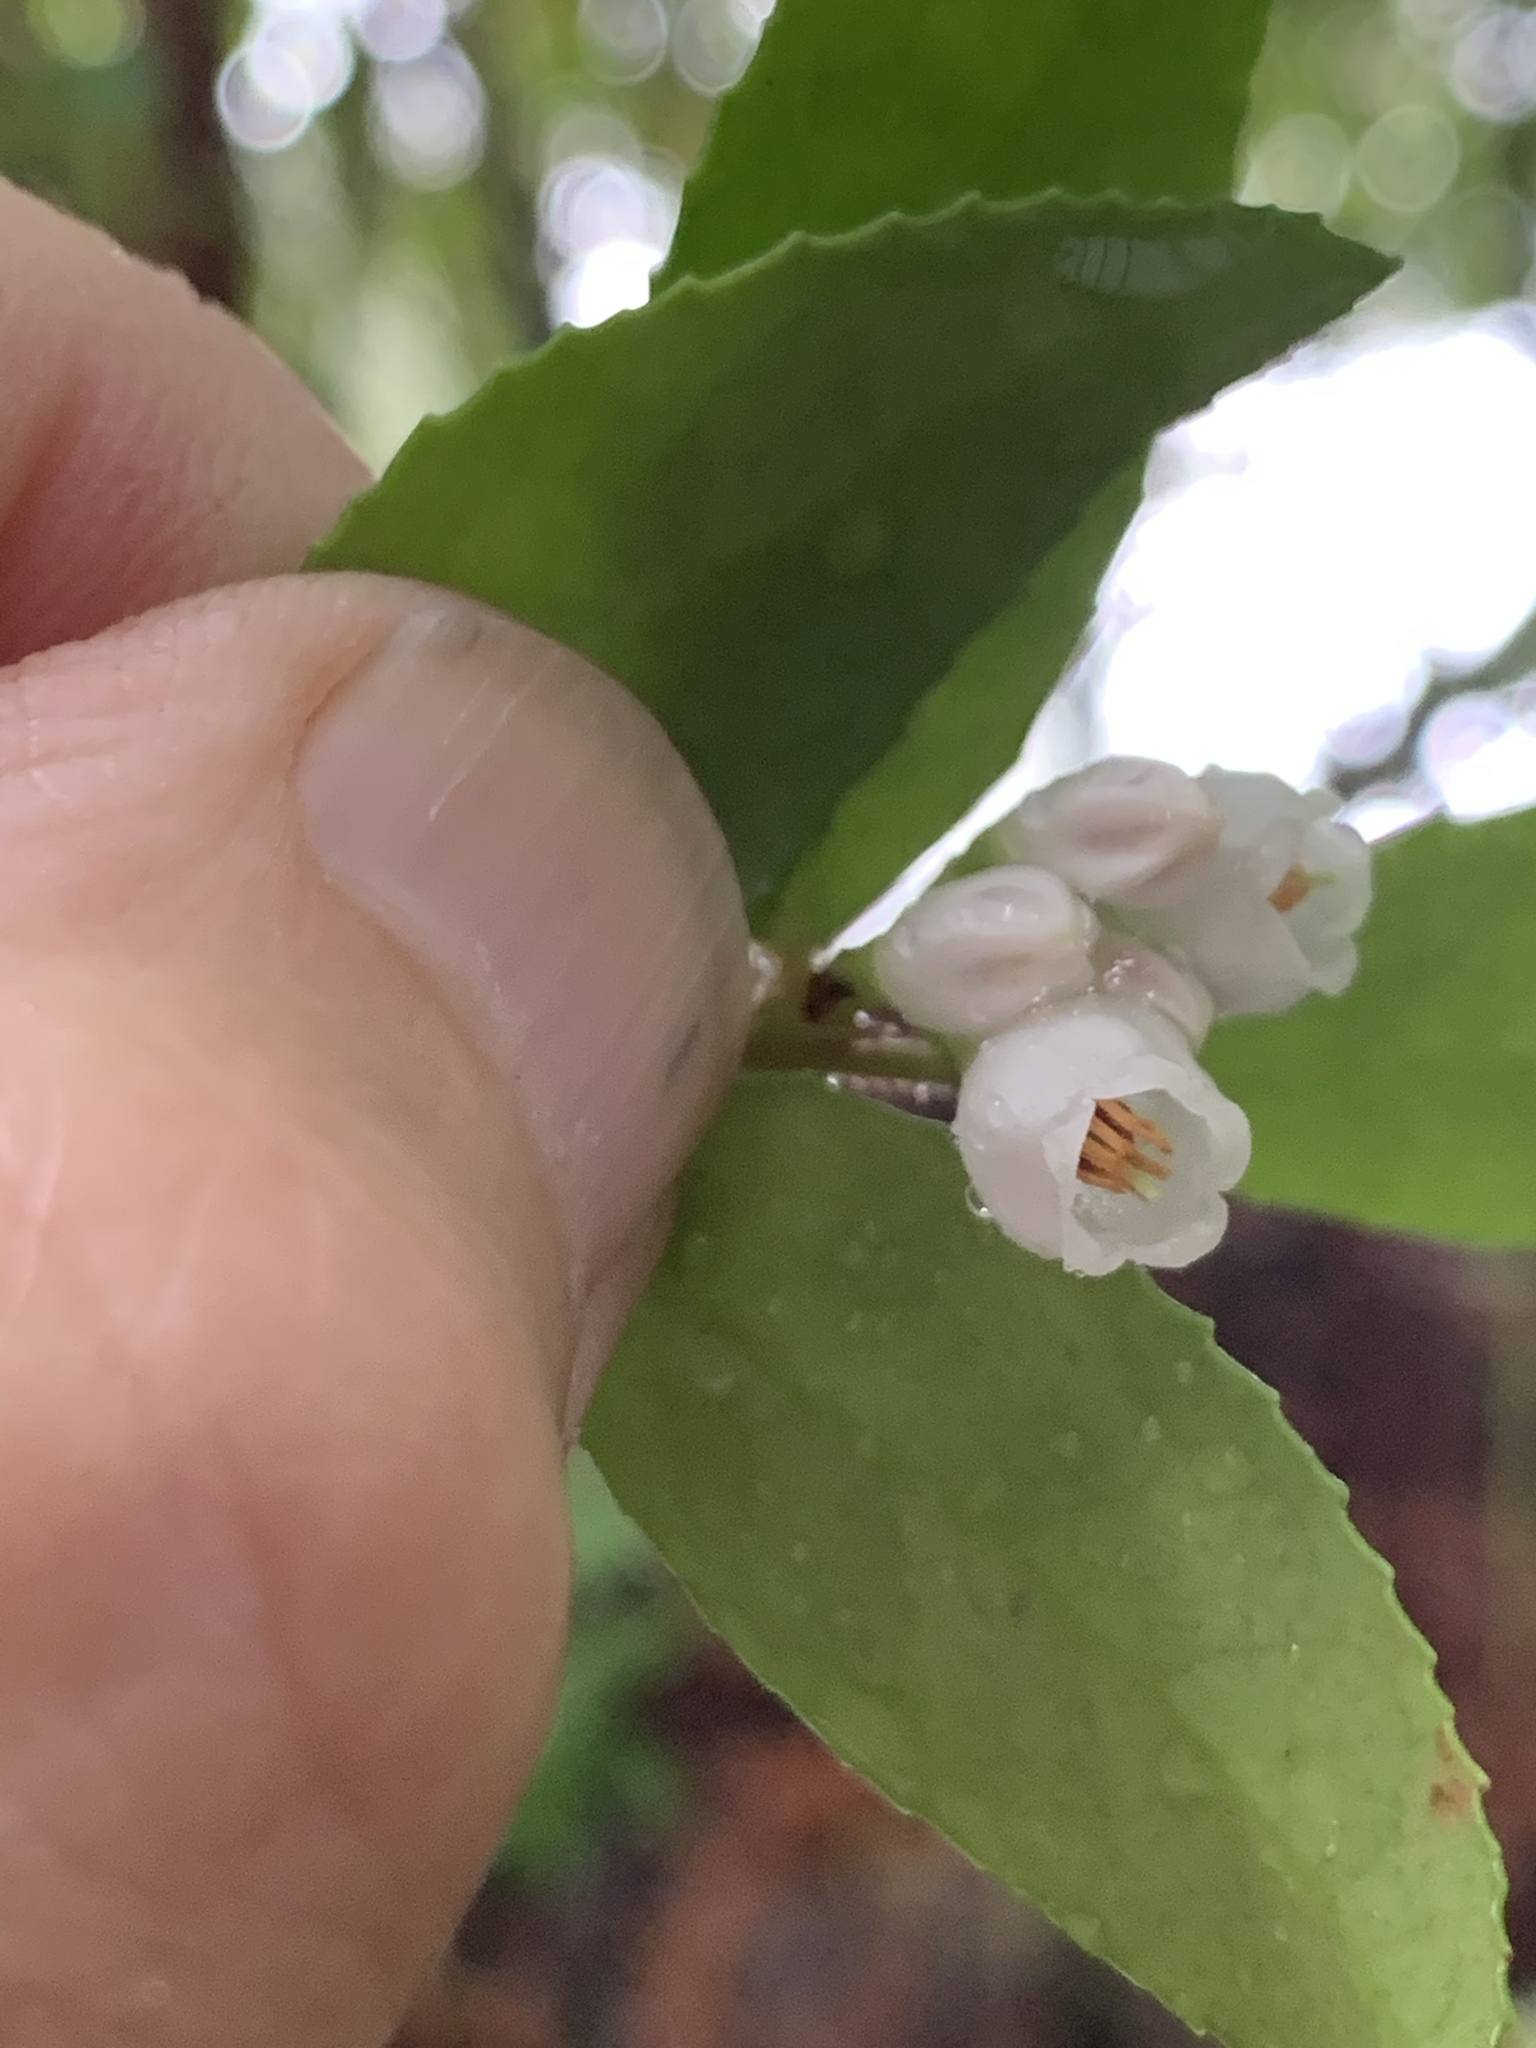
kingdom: Plantae
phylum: Tracheophyta
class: Magnoliopsida
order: Ericales
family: Ericaceae
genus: Vaccinium
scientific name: Vaccinium ovatum
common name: California-huckleberry
